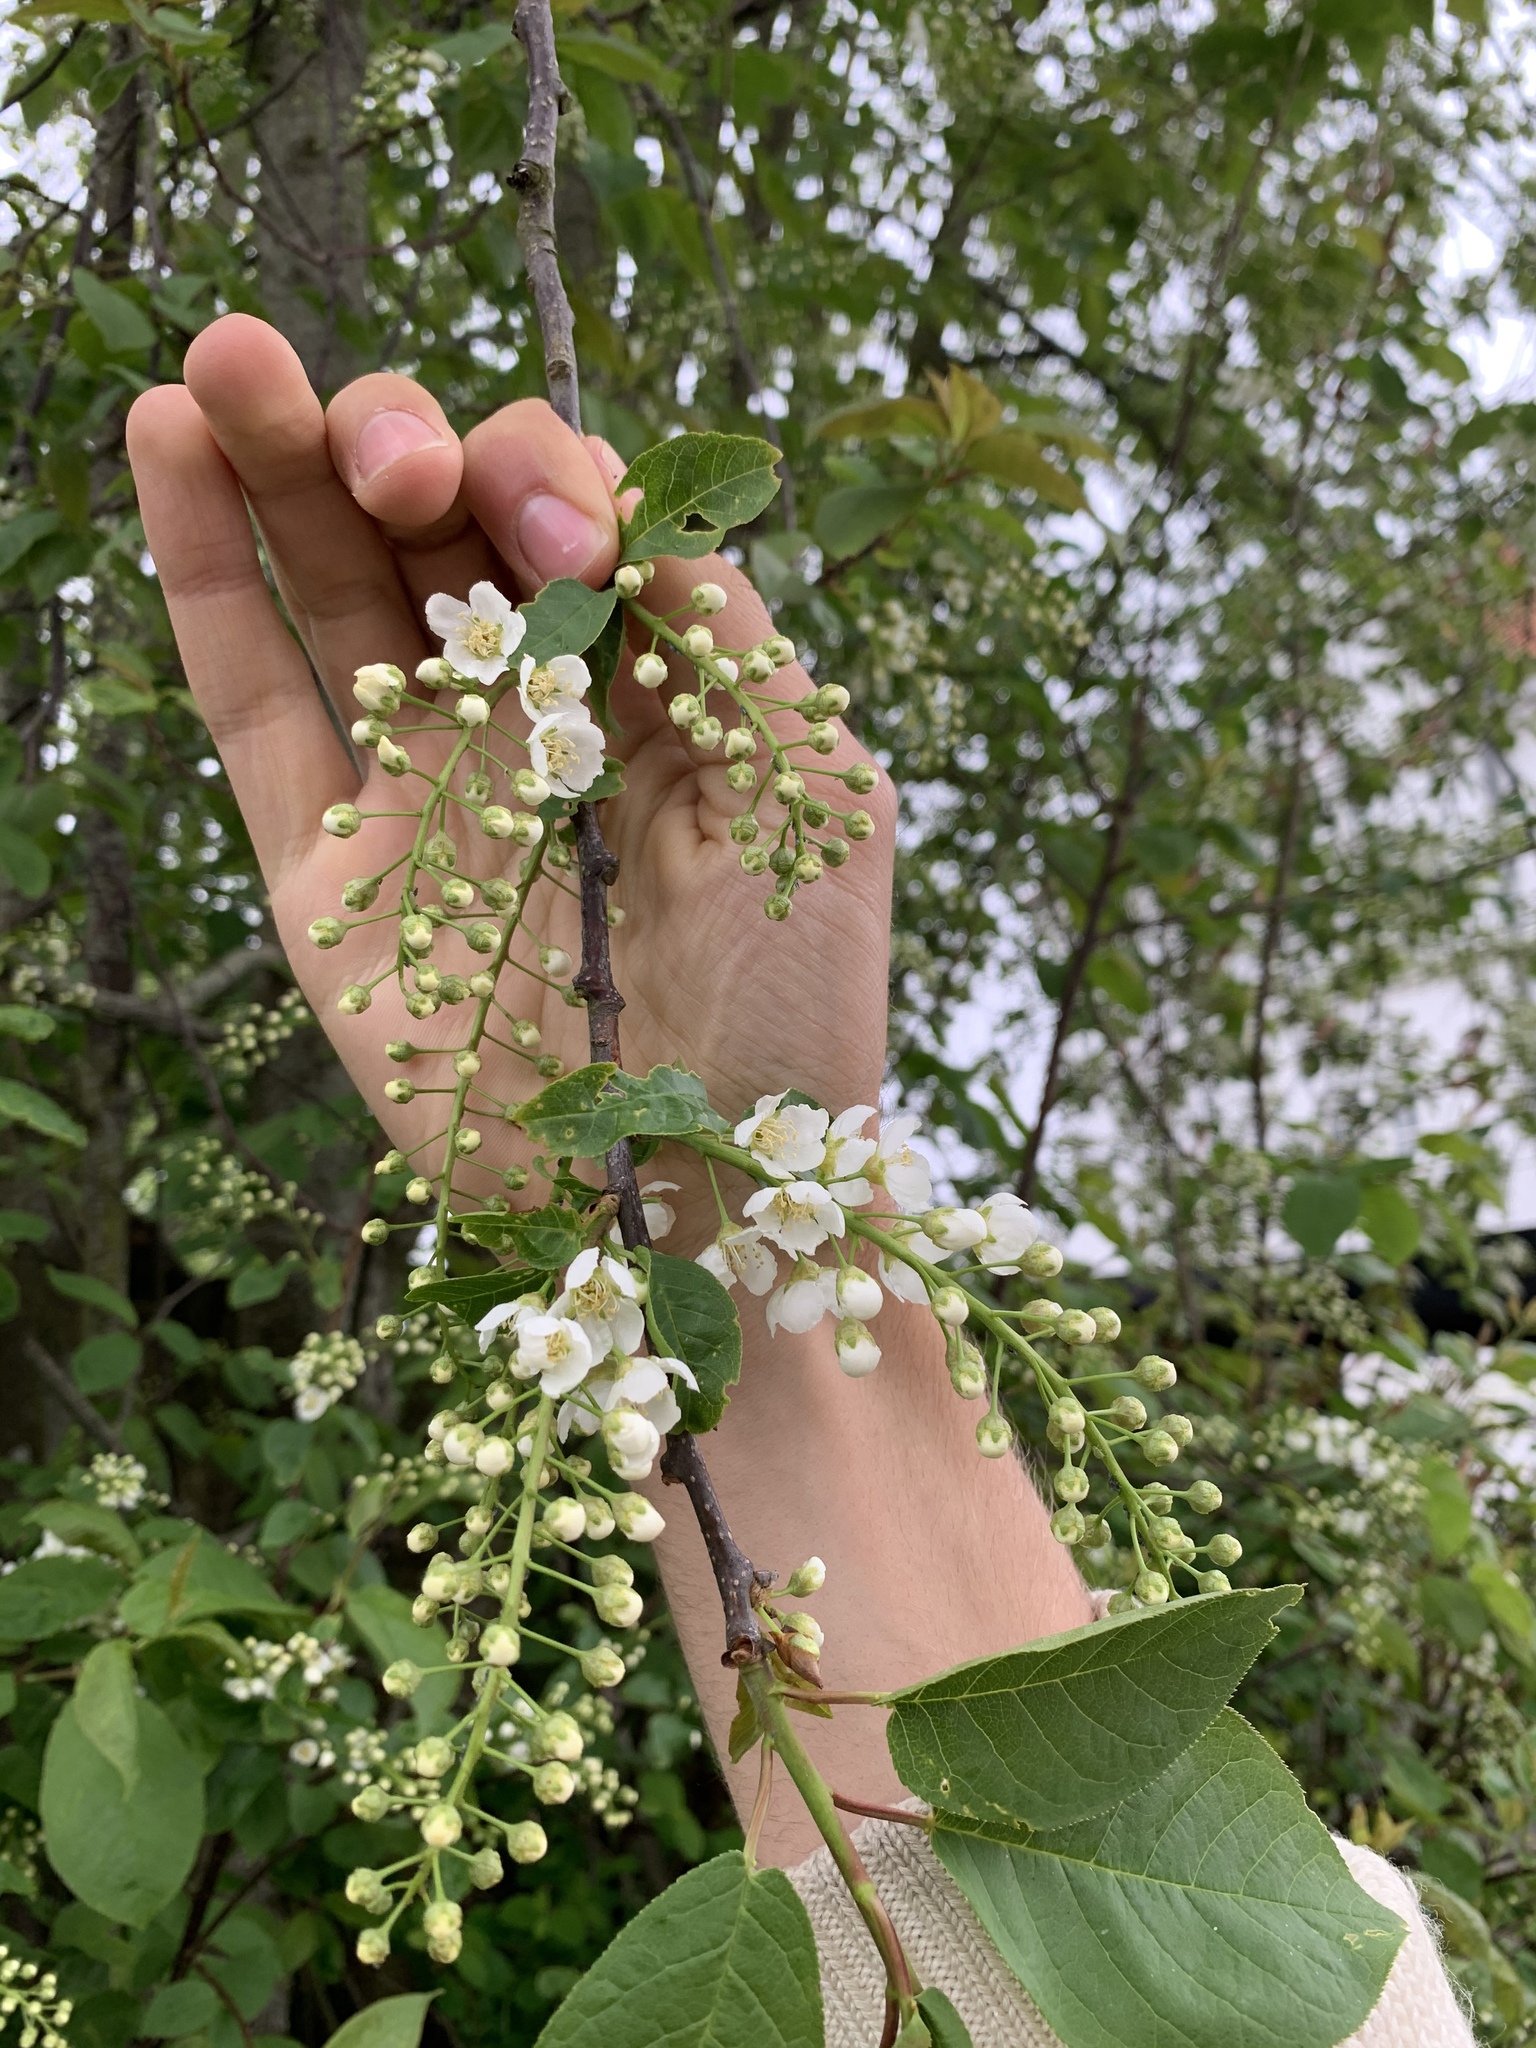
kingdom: Plantae
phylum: Tracheophyta
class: Magnoliopsida
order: Rosales
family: Rosaceae
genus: Prunus
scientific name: Prunus padus
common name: Bird cherry
